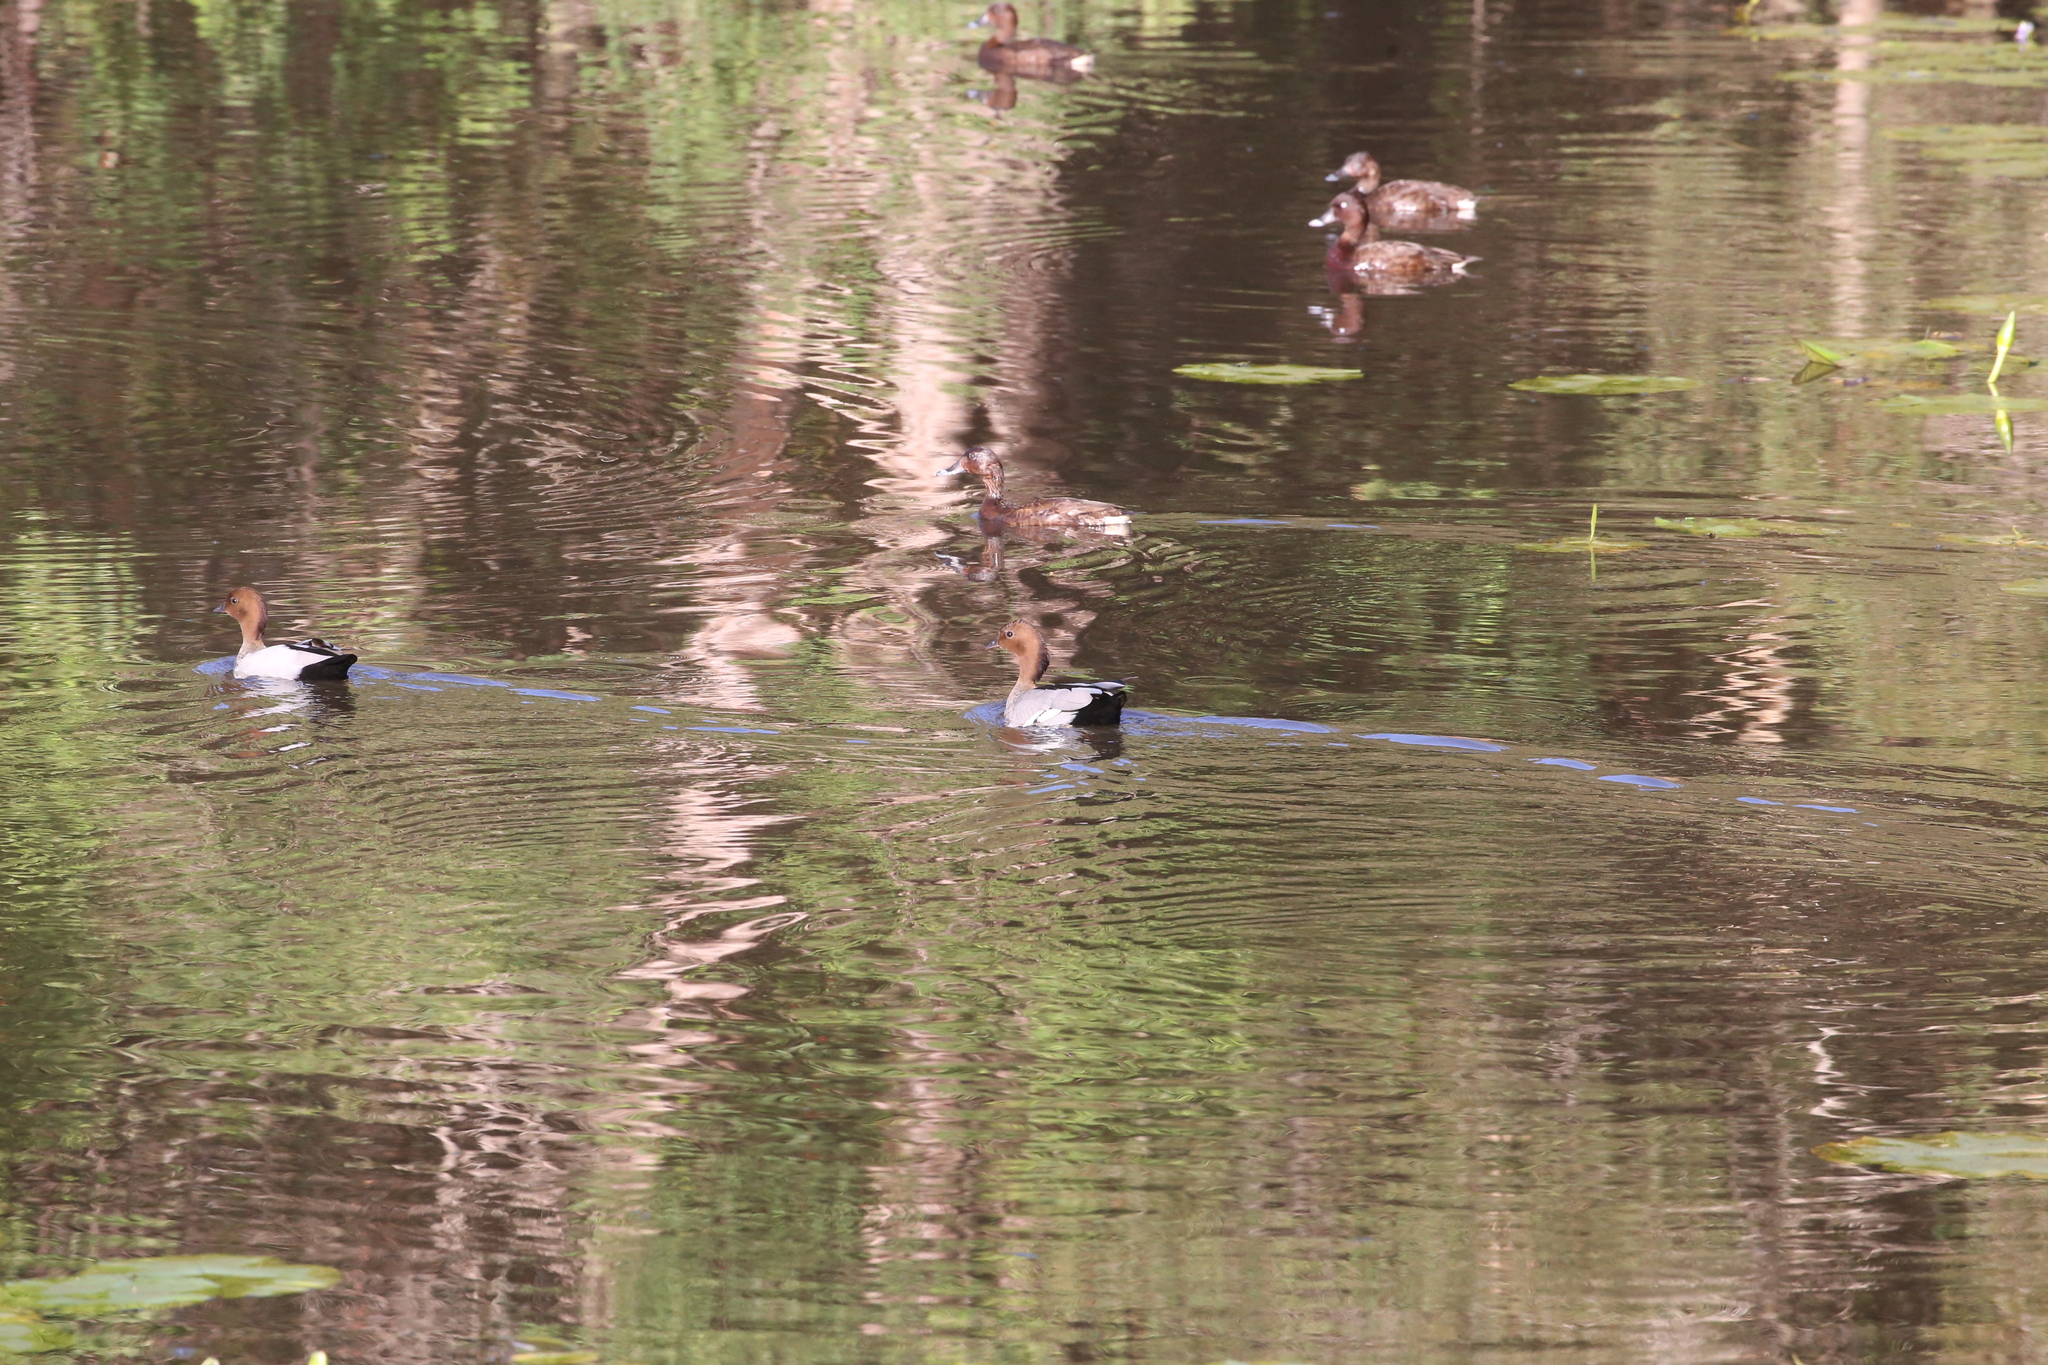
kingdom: Animalia
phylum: Chordata
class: Aves
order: Anseriformes
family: Anatidae
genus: Chenonetta
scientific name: Chenonetta jubata
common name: Maned duck
